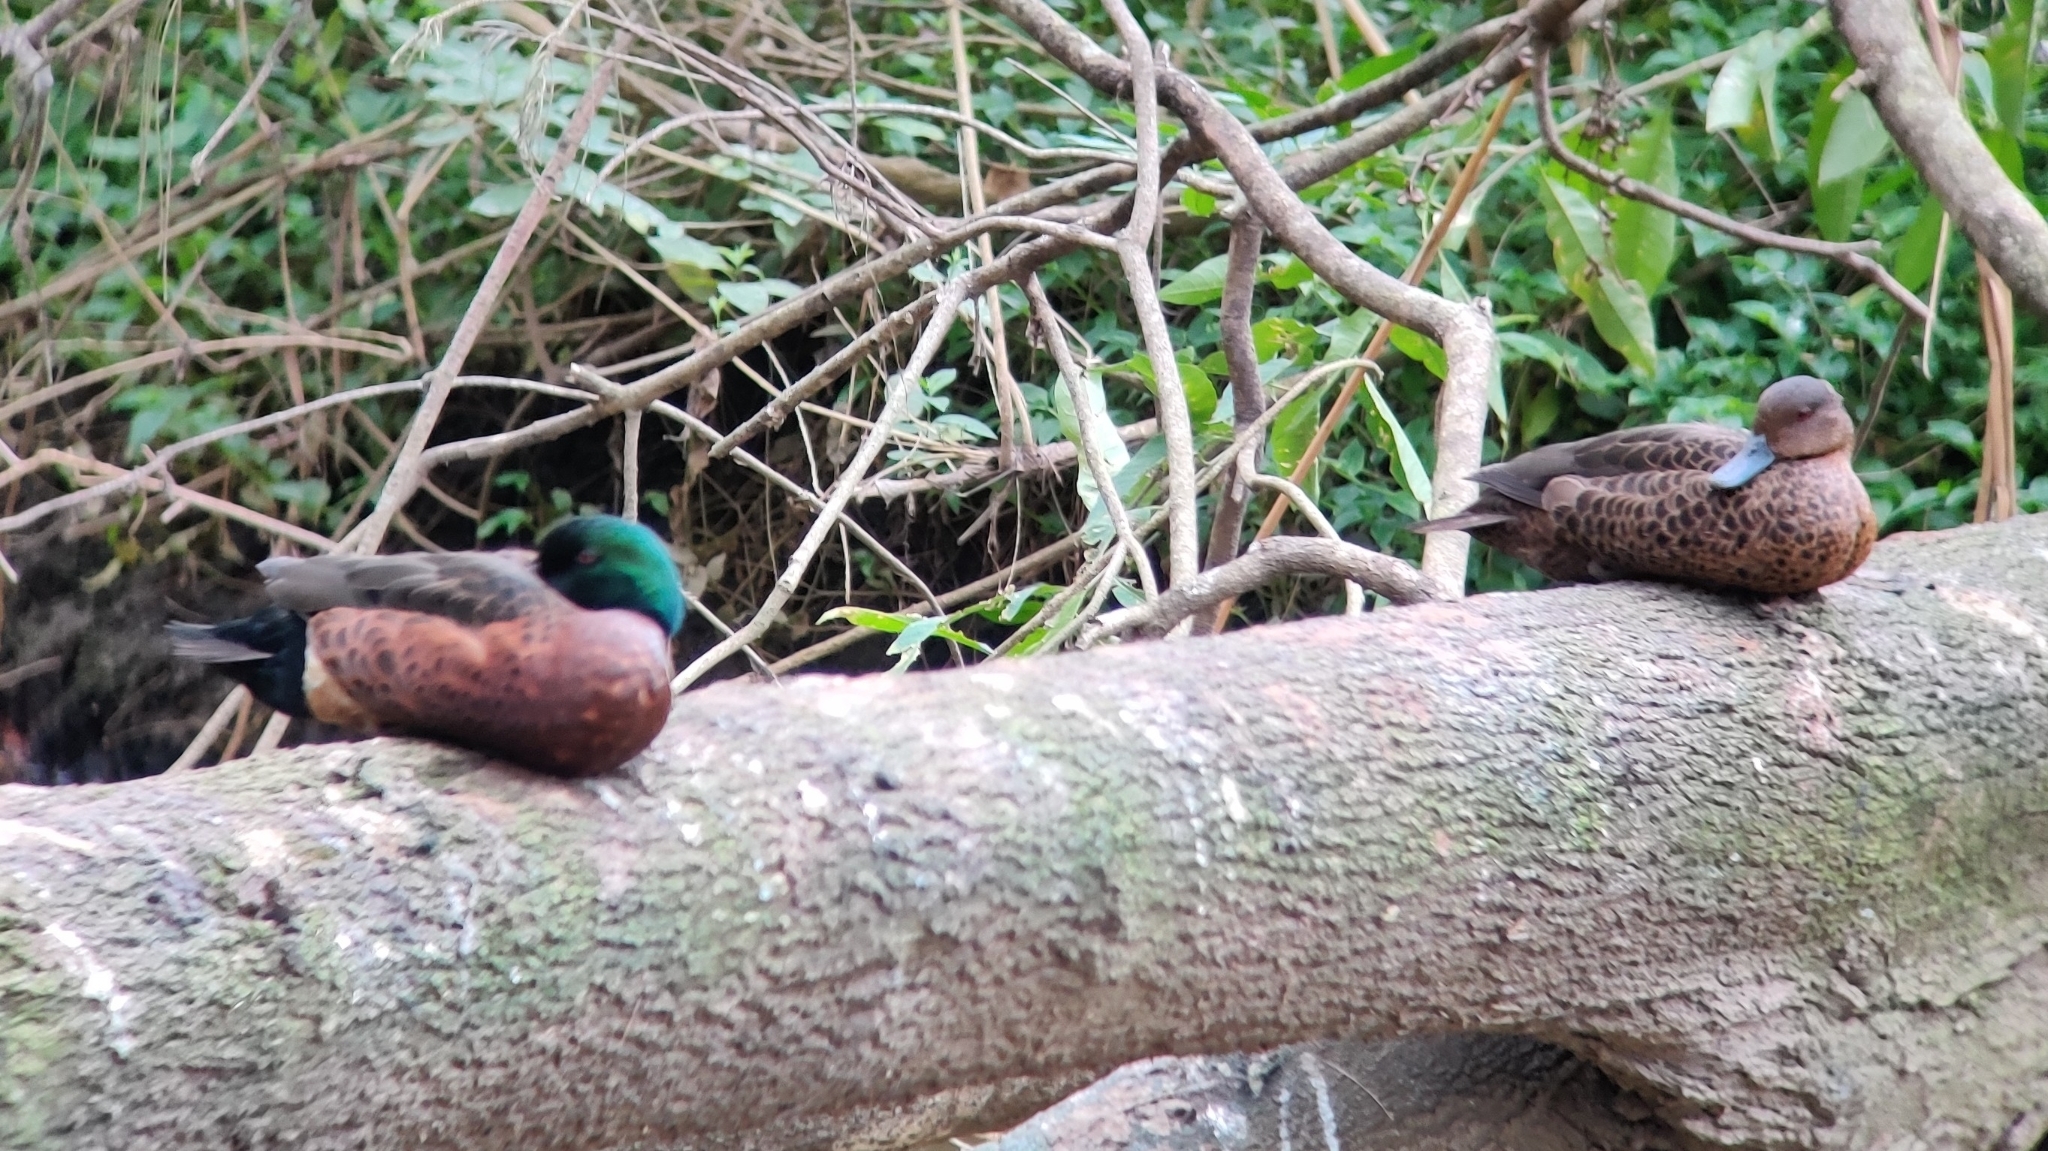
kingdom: Animalia
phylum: Chordata
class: Aves
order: Anseriformes
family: Anatidae
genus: Anas
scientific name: Anas castanea
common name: Chestnut teal
